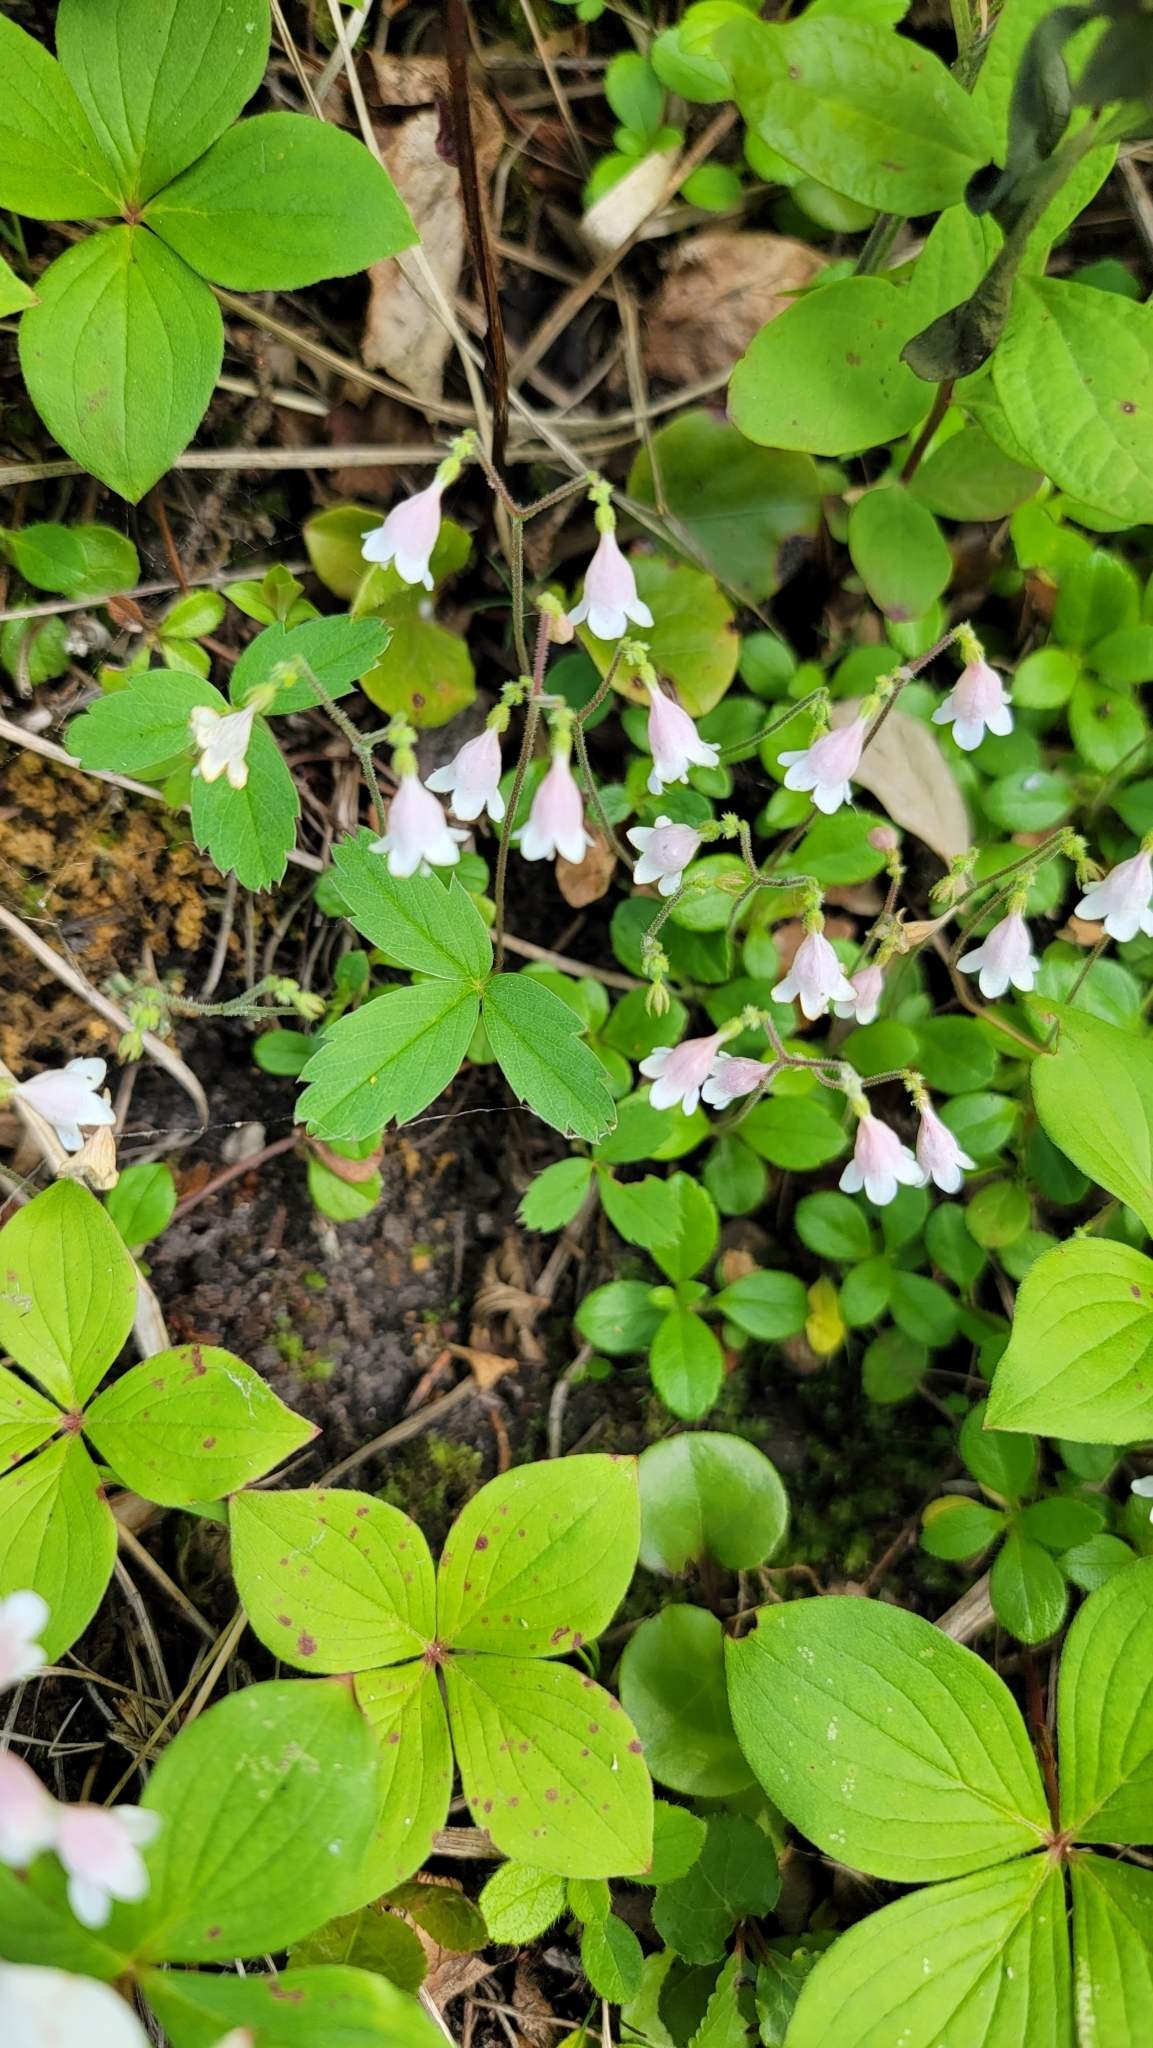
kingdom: Plantae
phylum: Tracheophyta
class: Magnoliopsida
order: Dipsacales
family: Caprifoliaceae
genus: Linnaea
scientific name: Linnaea borealis
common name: Twinflower
